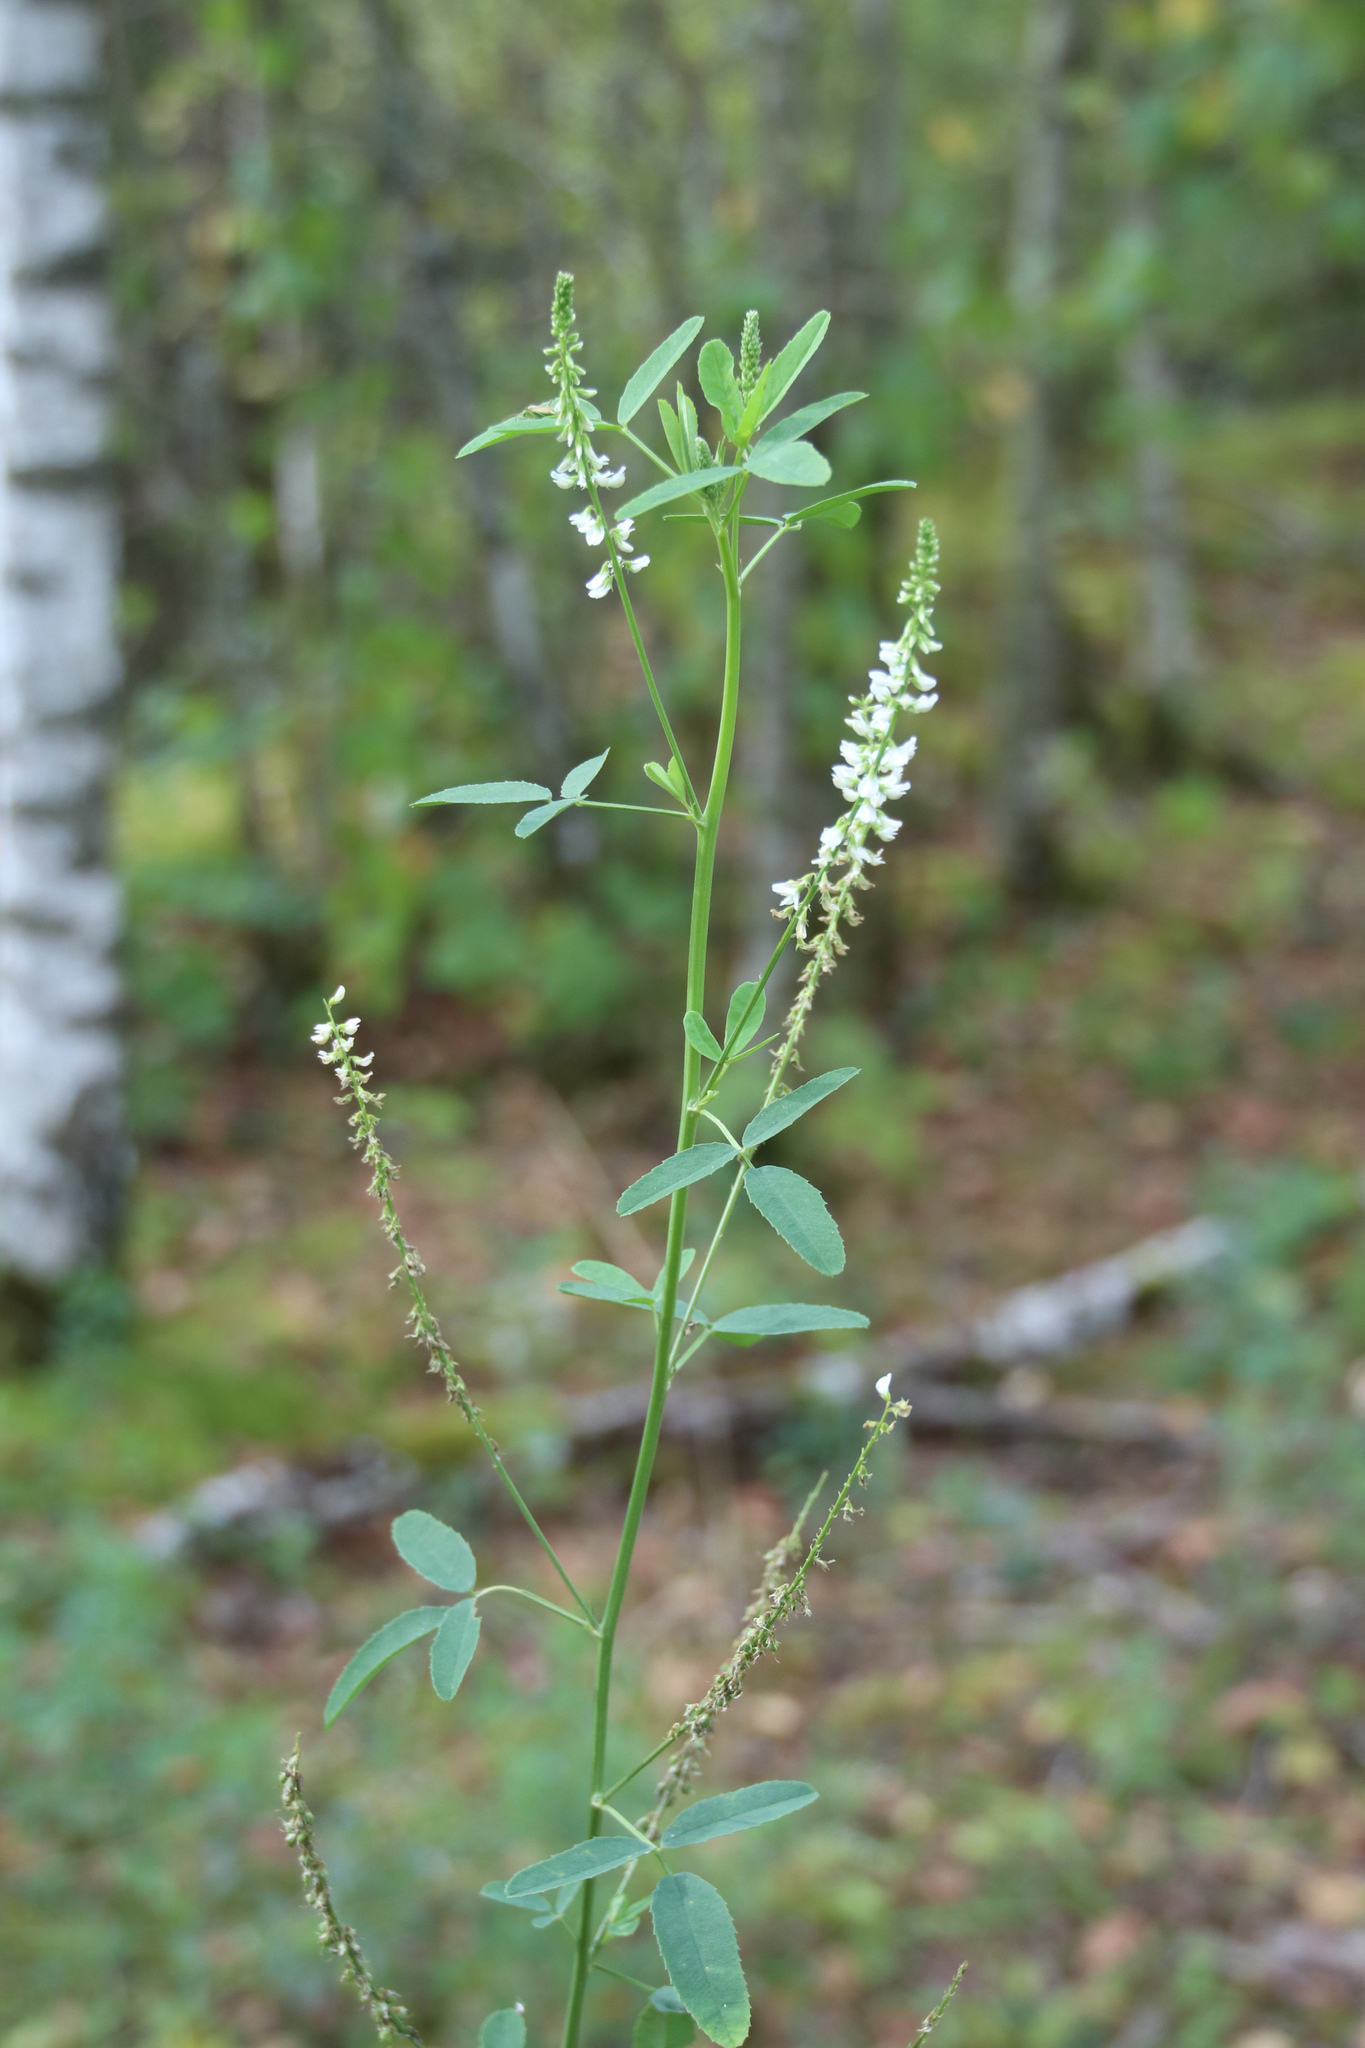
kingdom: Plantae
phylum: Tracheophyta
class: Magnoliopsida
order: Fabales
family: Fabaceae
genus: Melilotus
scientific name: Melilotus albus
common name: White melilot
